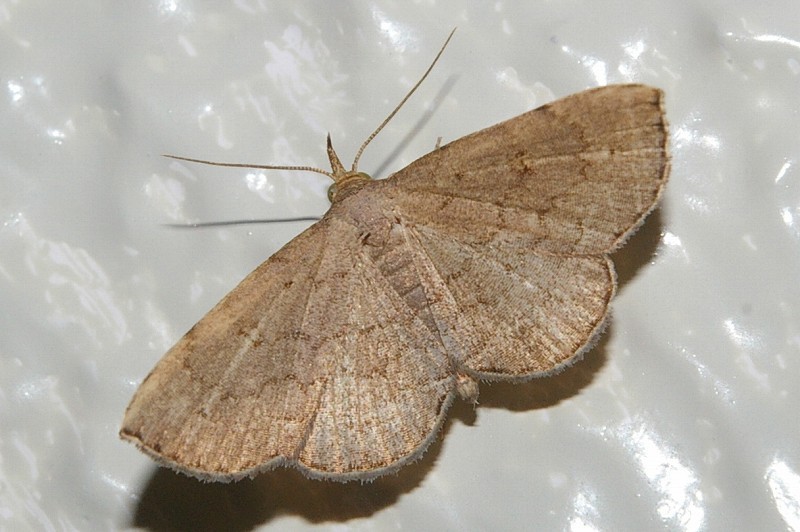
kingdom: Animalia
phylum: Arthropoda
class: Insecta
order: Lepidoptera
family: Erebidae
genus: Herminia
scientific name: Herminia fentoni
